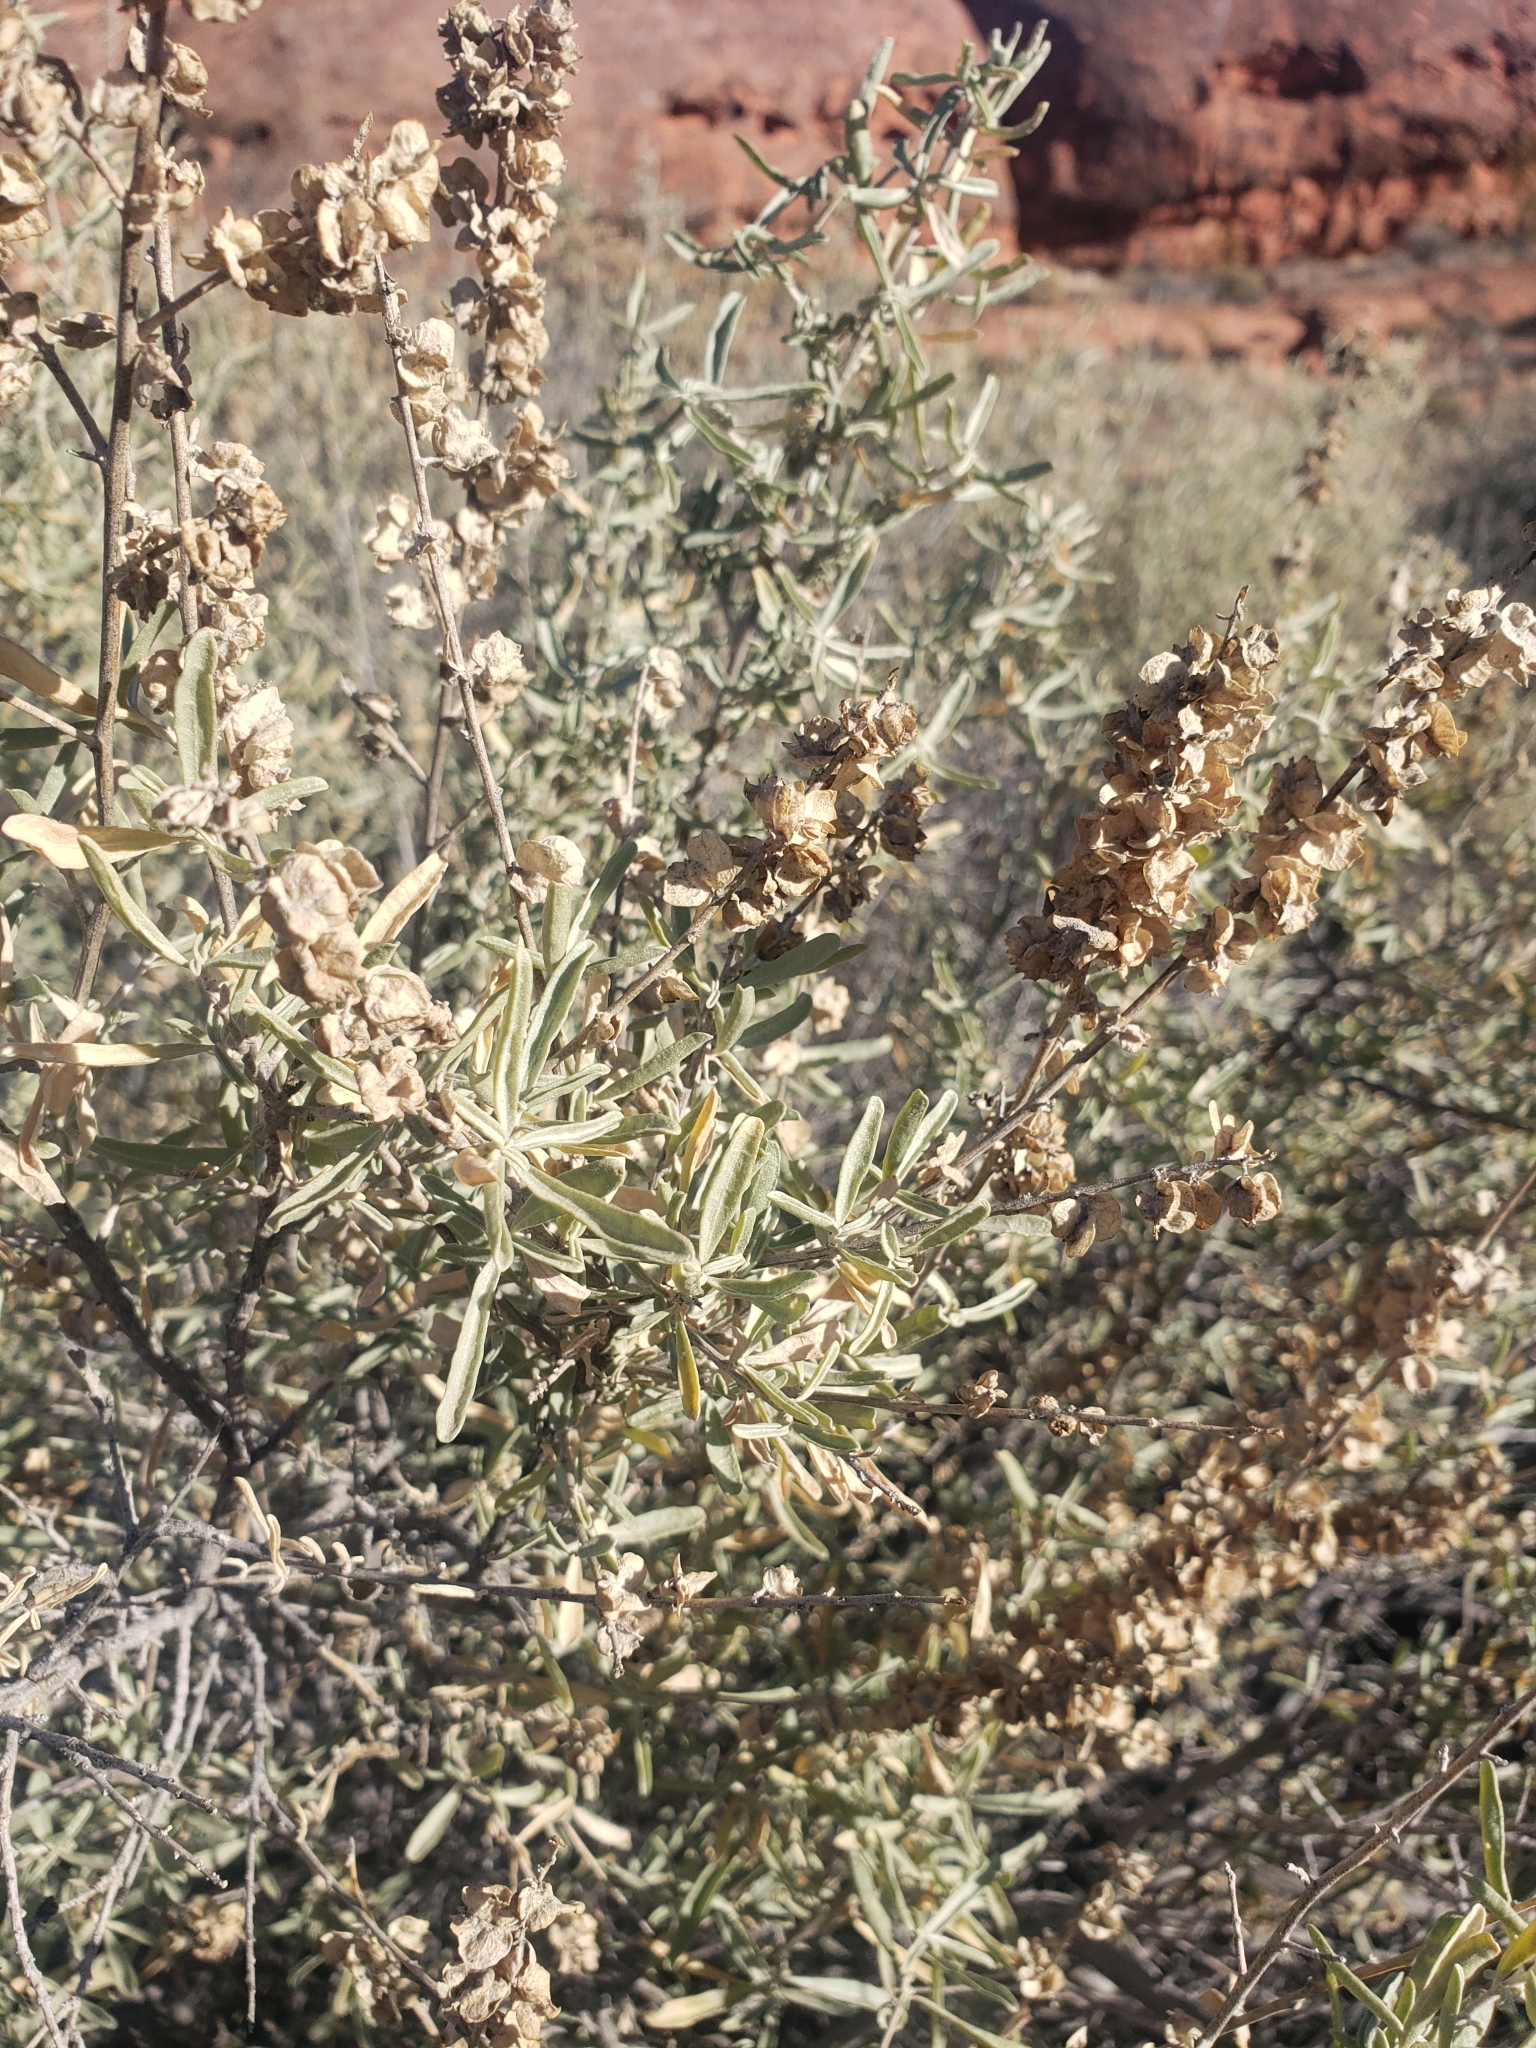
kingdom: Plantae
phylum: Tracheophyta
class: Magnoliopsida
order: Caryophyllales
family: Amaranthaceae
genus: Atriplex
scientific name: Atriplex canescens
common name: Four-wing saltbush
